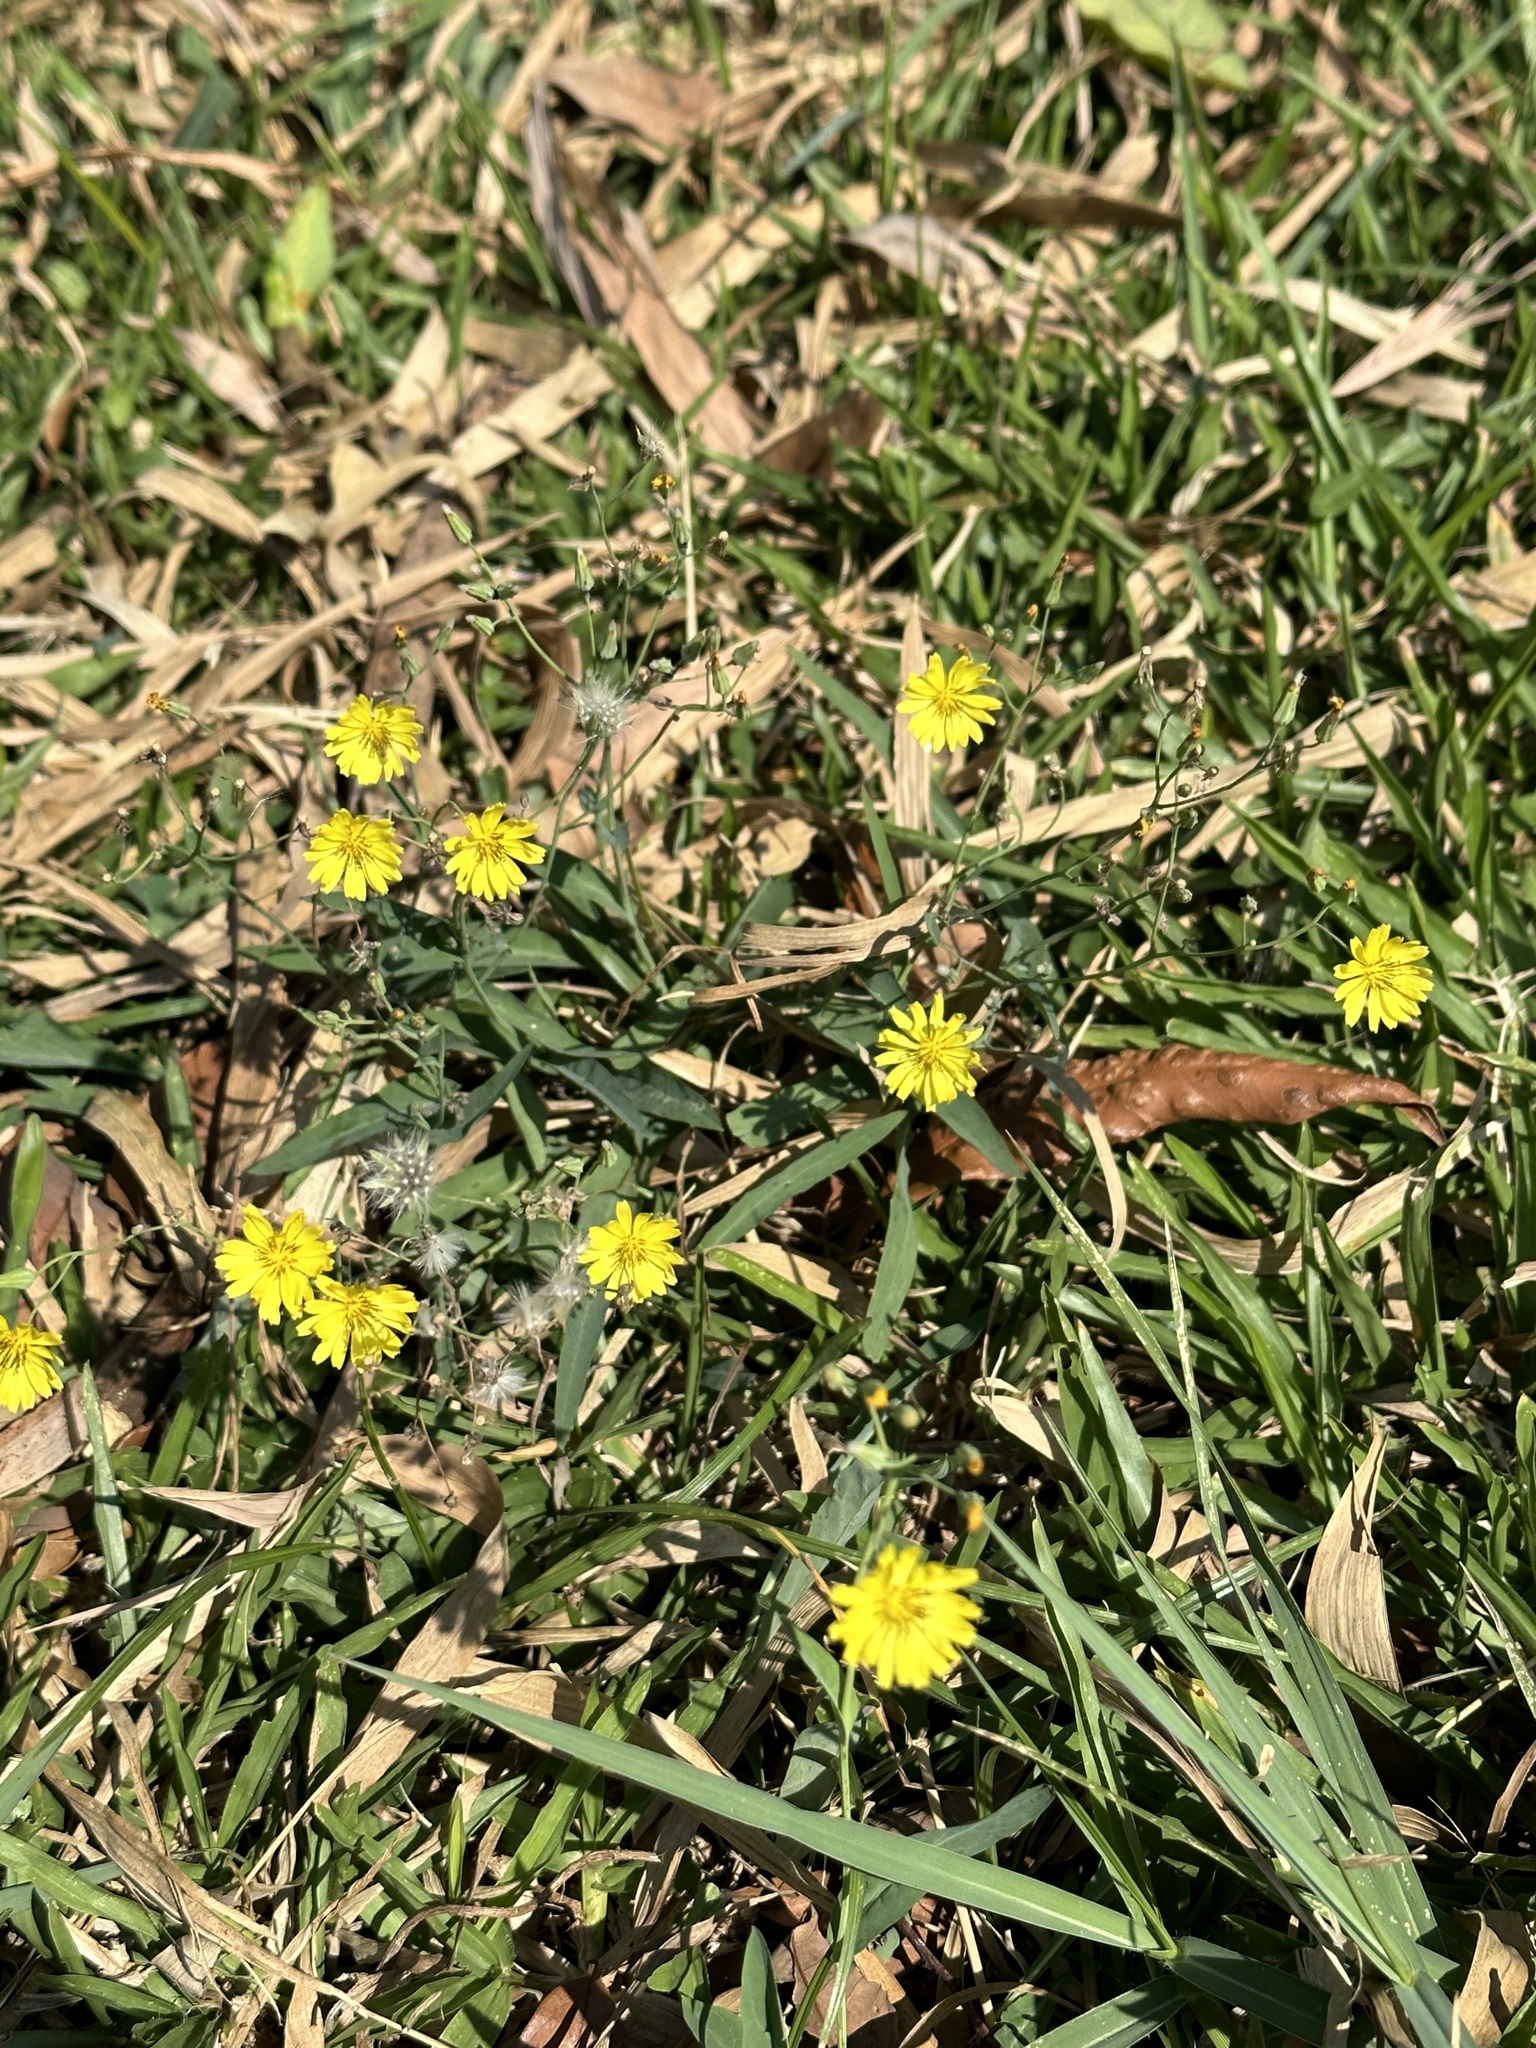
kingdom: Plantae
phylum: Tracheophyta
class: Magnoliopsida
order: Asterales
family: Asteraceae
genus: Ixeris
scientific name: Ixeris chinensis
